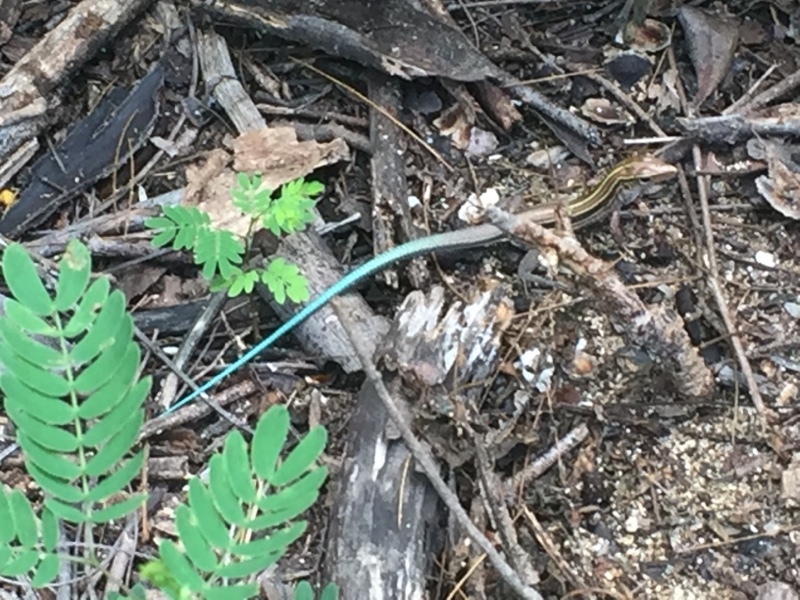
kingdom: Animalia
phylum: Chordata
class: Squamata
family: Teiidae
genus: Pholidoscelis
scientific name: Pholidoscelis auberi
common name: Auber's ameiva
